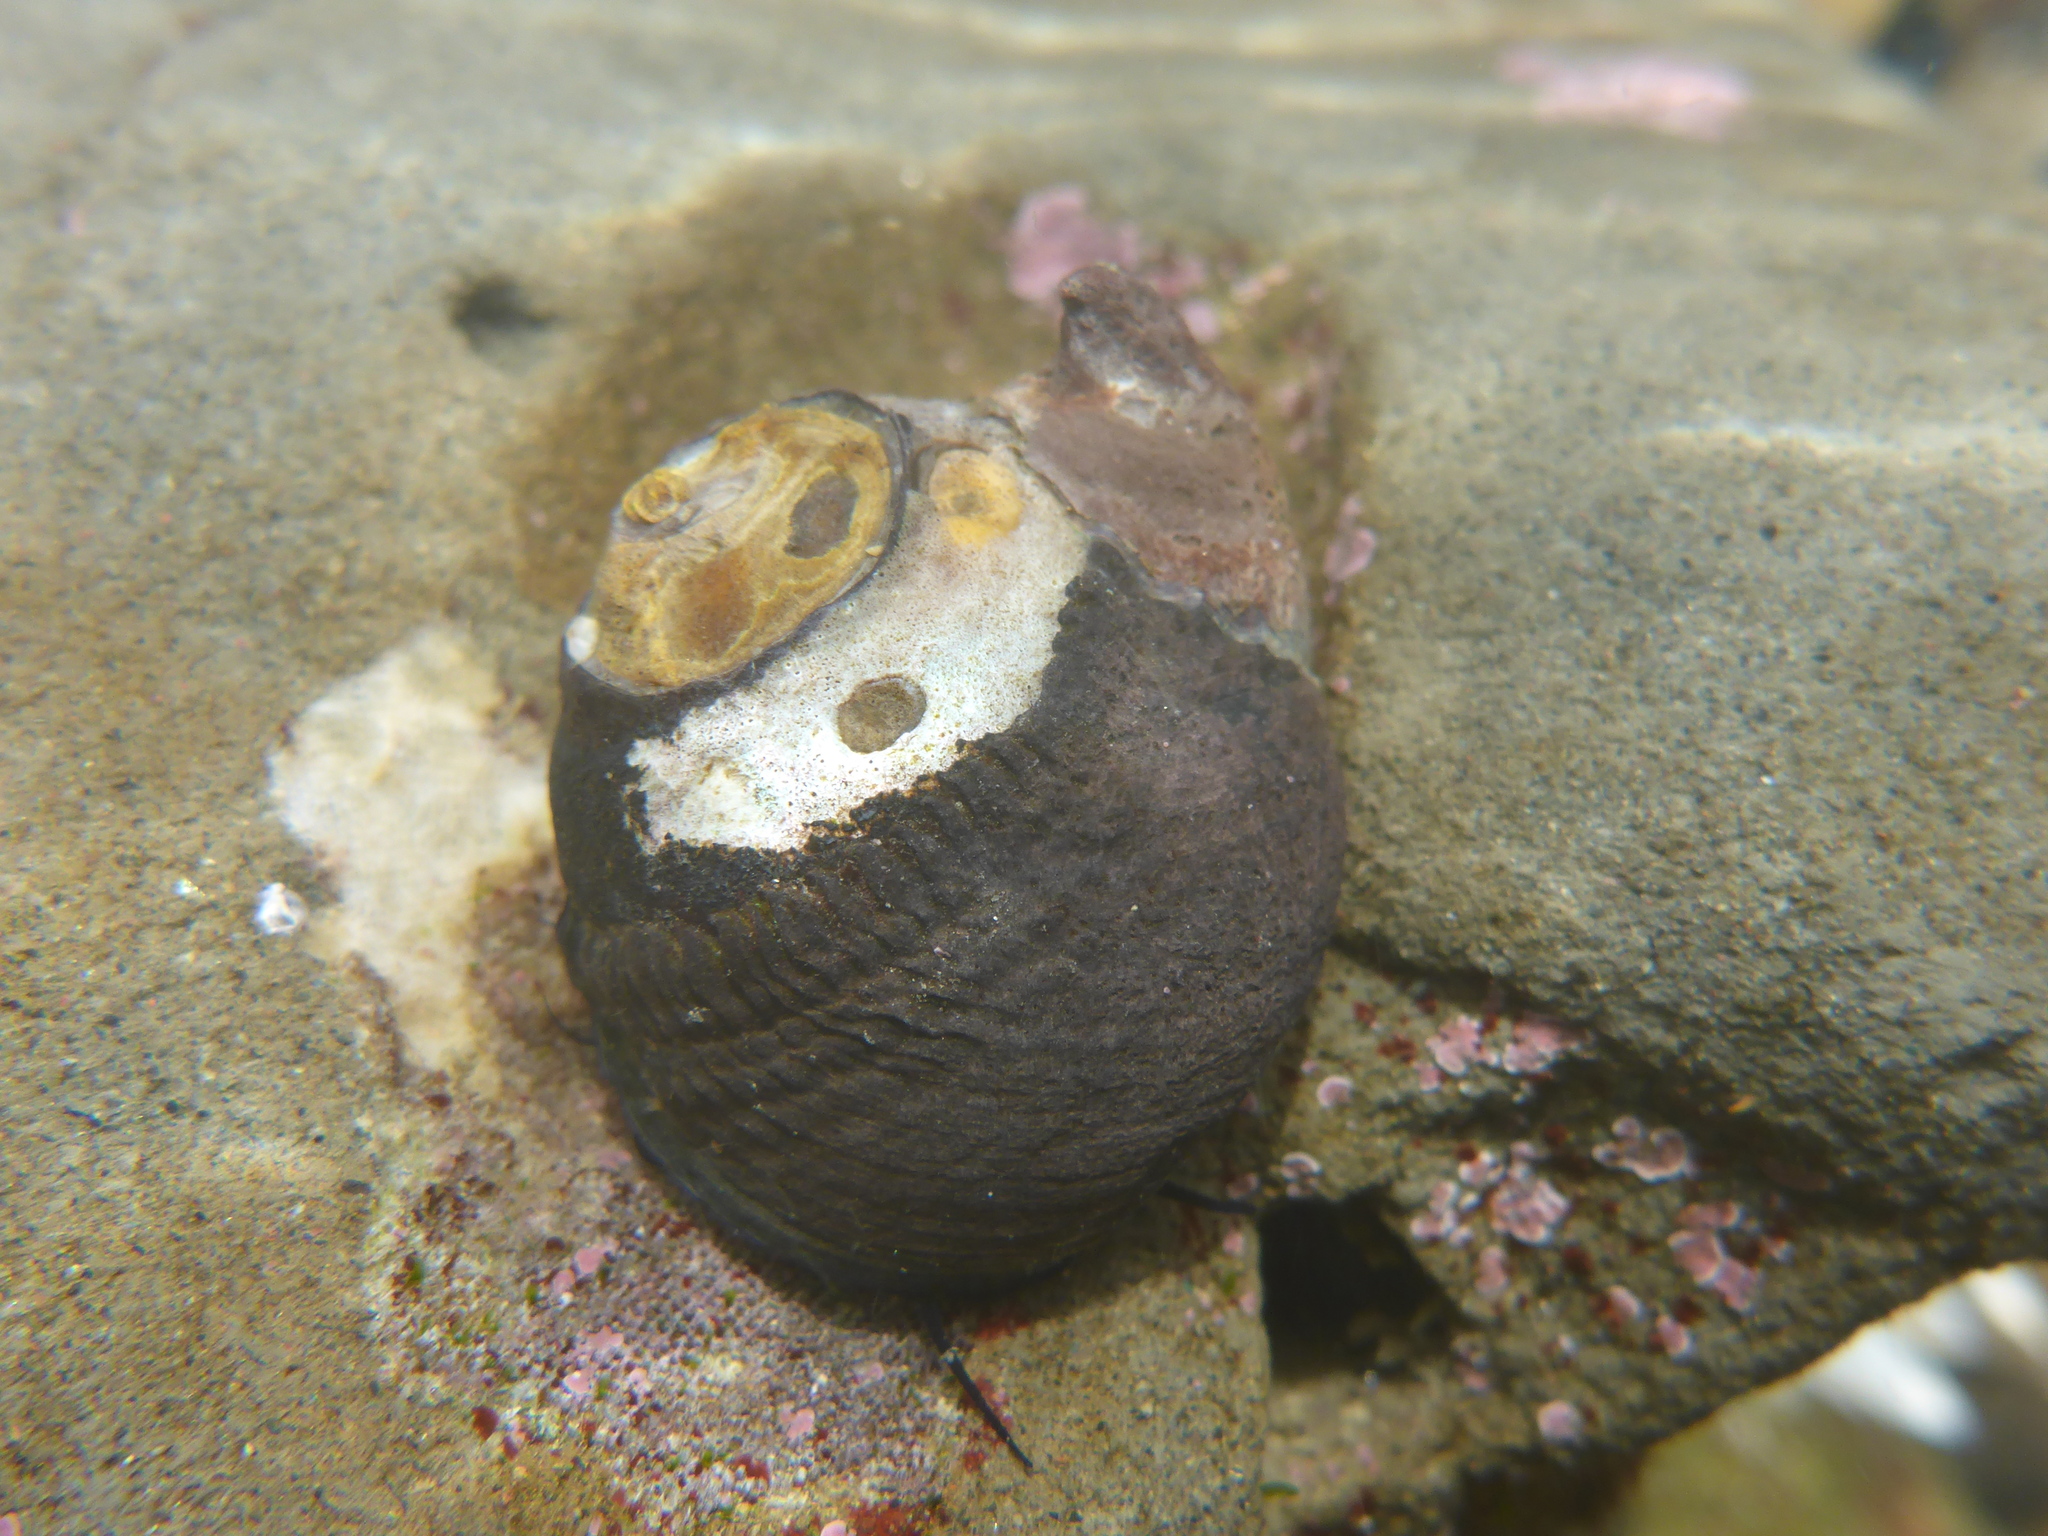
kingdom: Animalia
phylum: Mollusca
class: Gastropoda
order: Trochida
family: Tegulidae
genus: Tegula
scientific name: Tegula funebralis
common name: Black tegula
